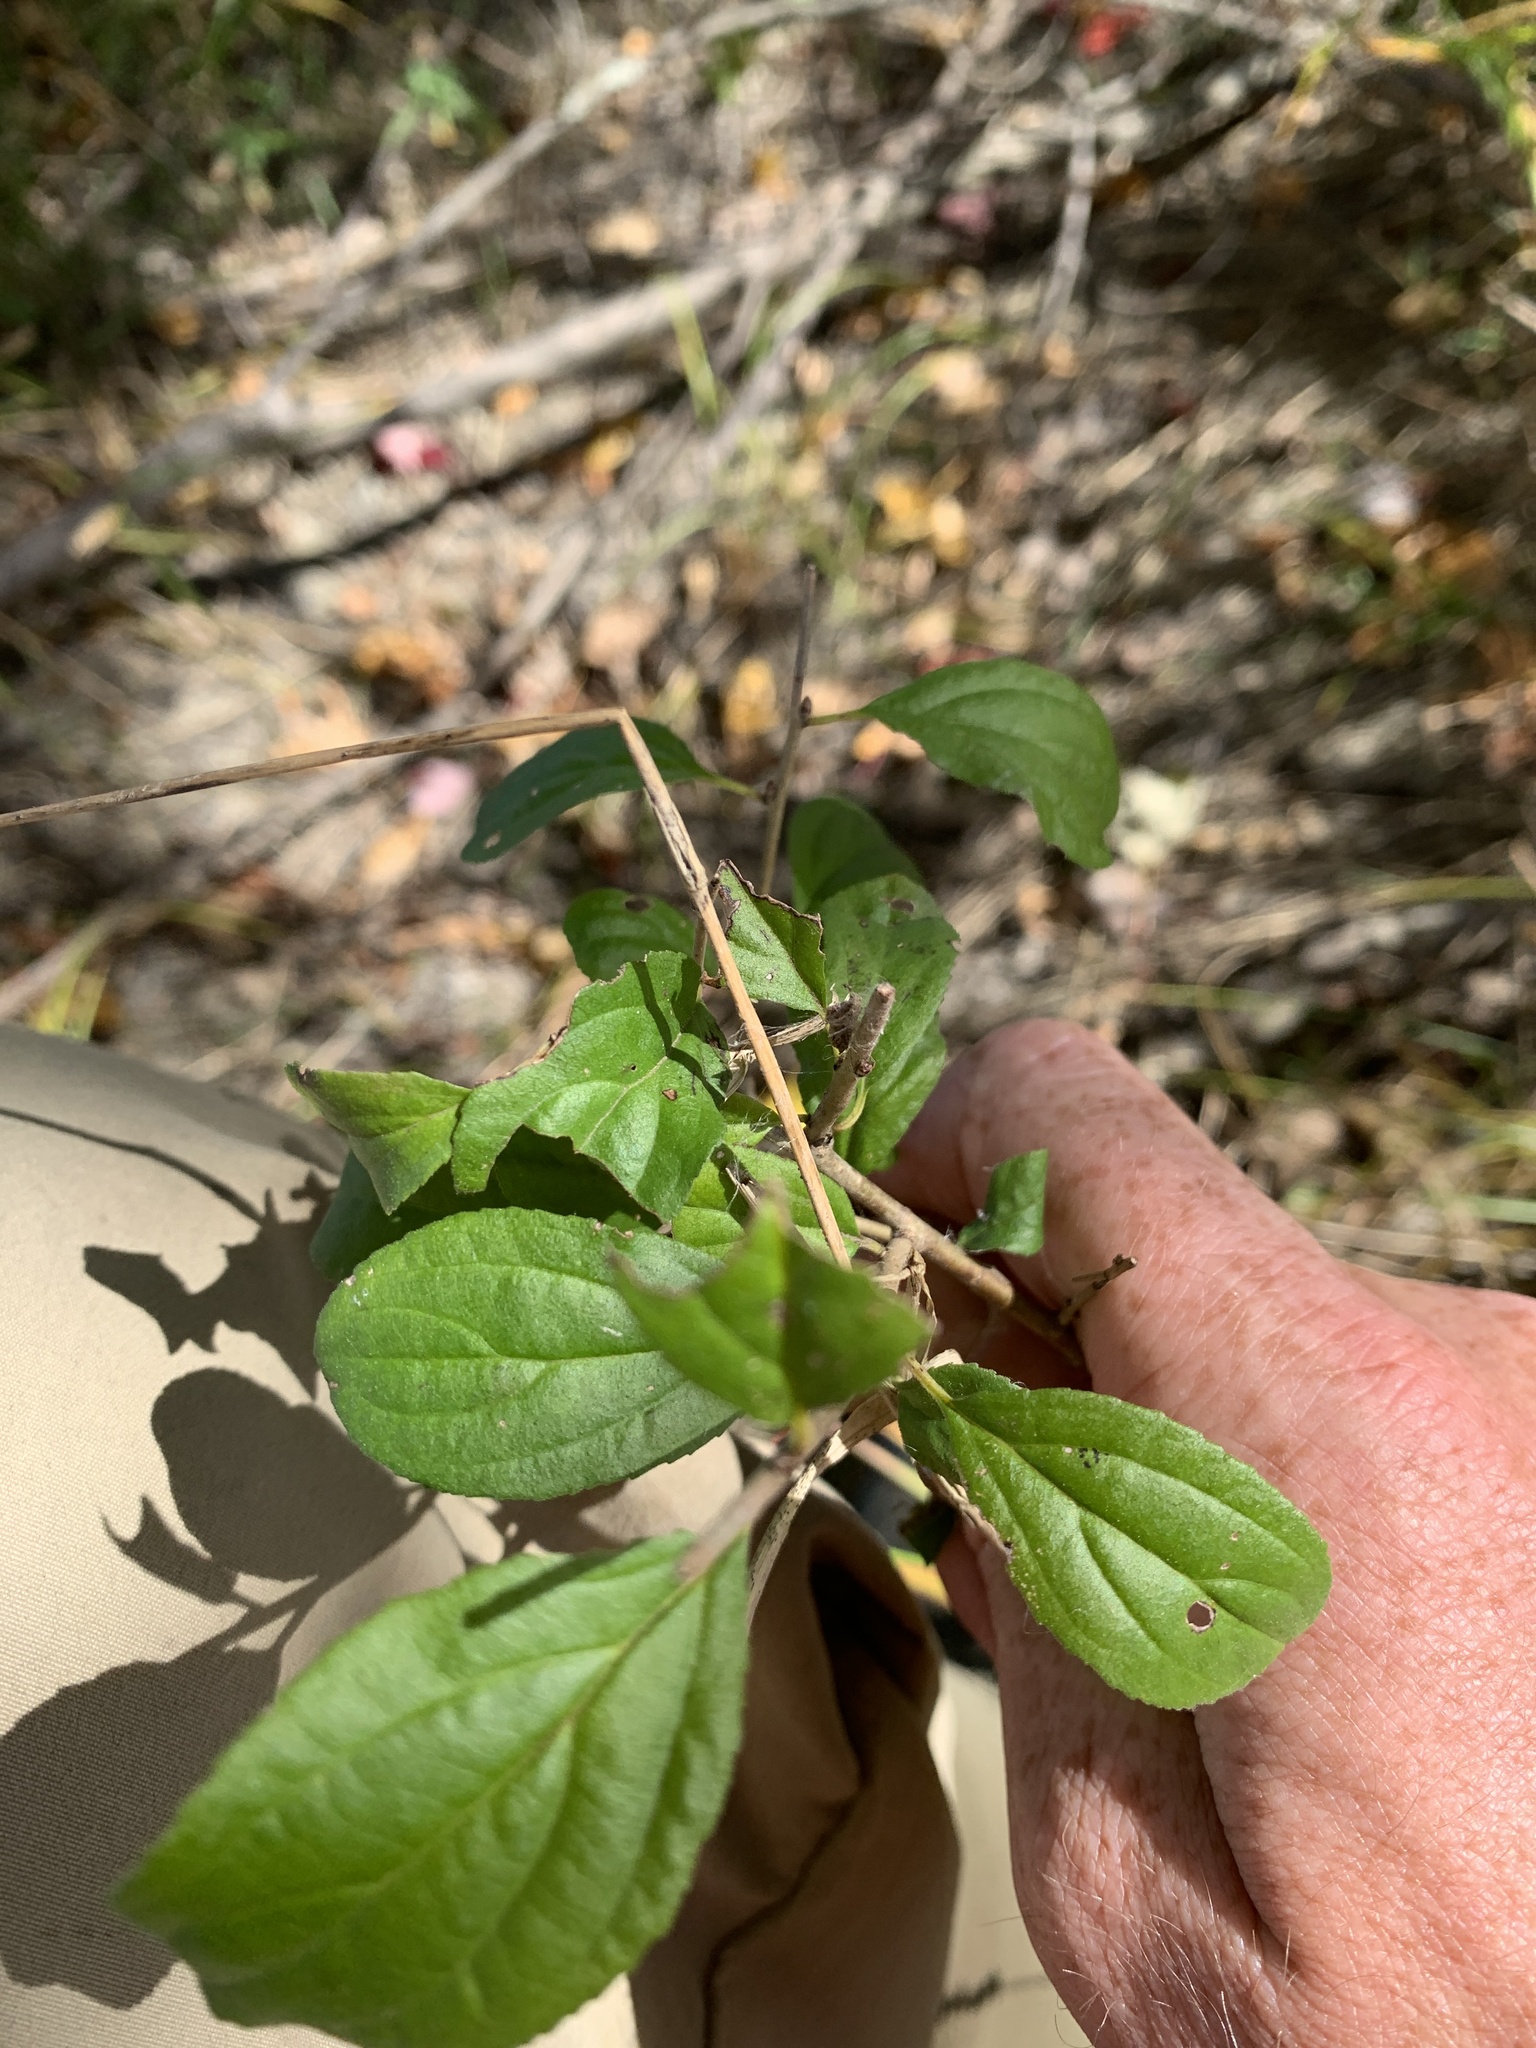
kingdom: Plantae
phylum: Tracheophyta
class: Magnoliopsida
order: Rosales
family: Rhamnaceae
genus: Rhamnus
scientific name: Rhamnus cathartica
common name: Common buckthorn
